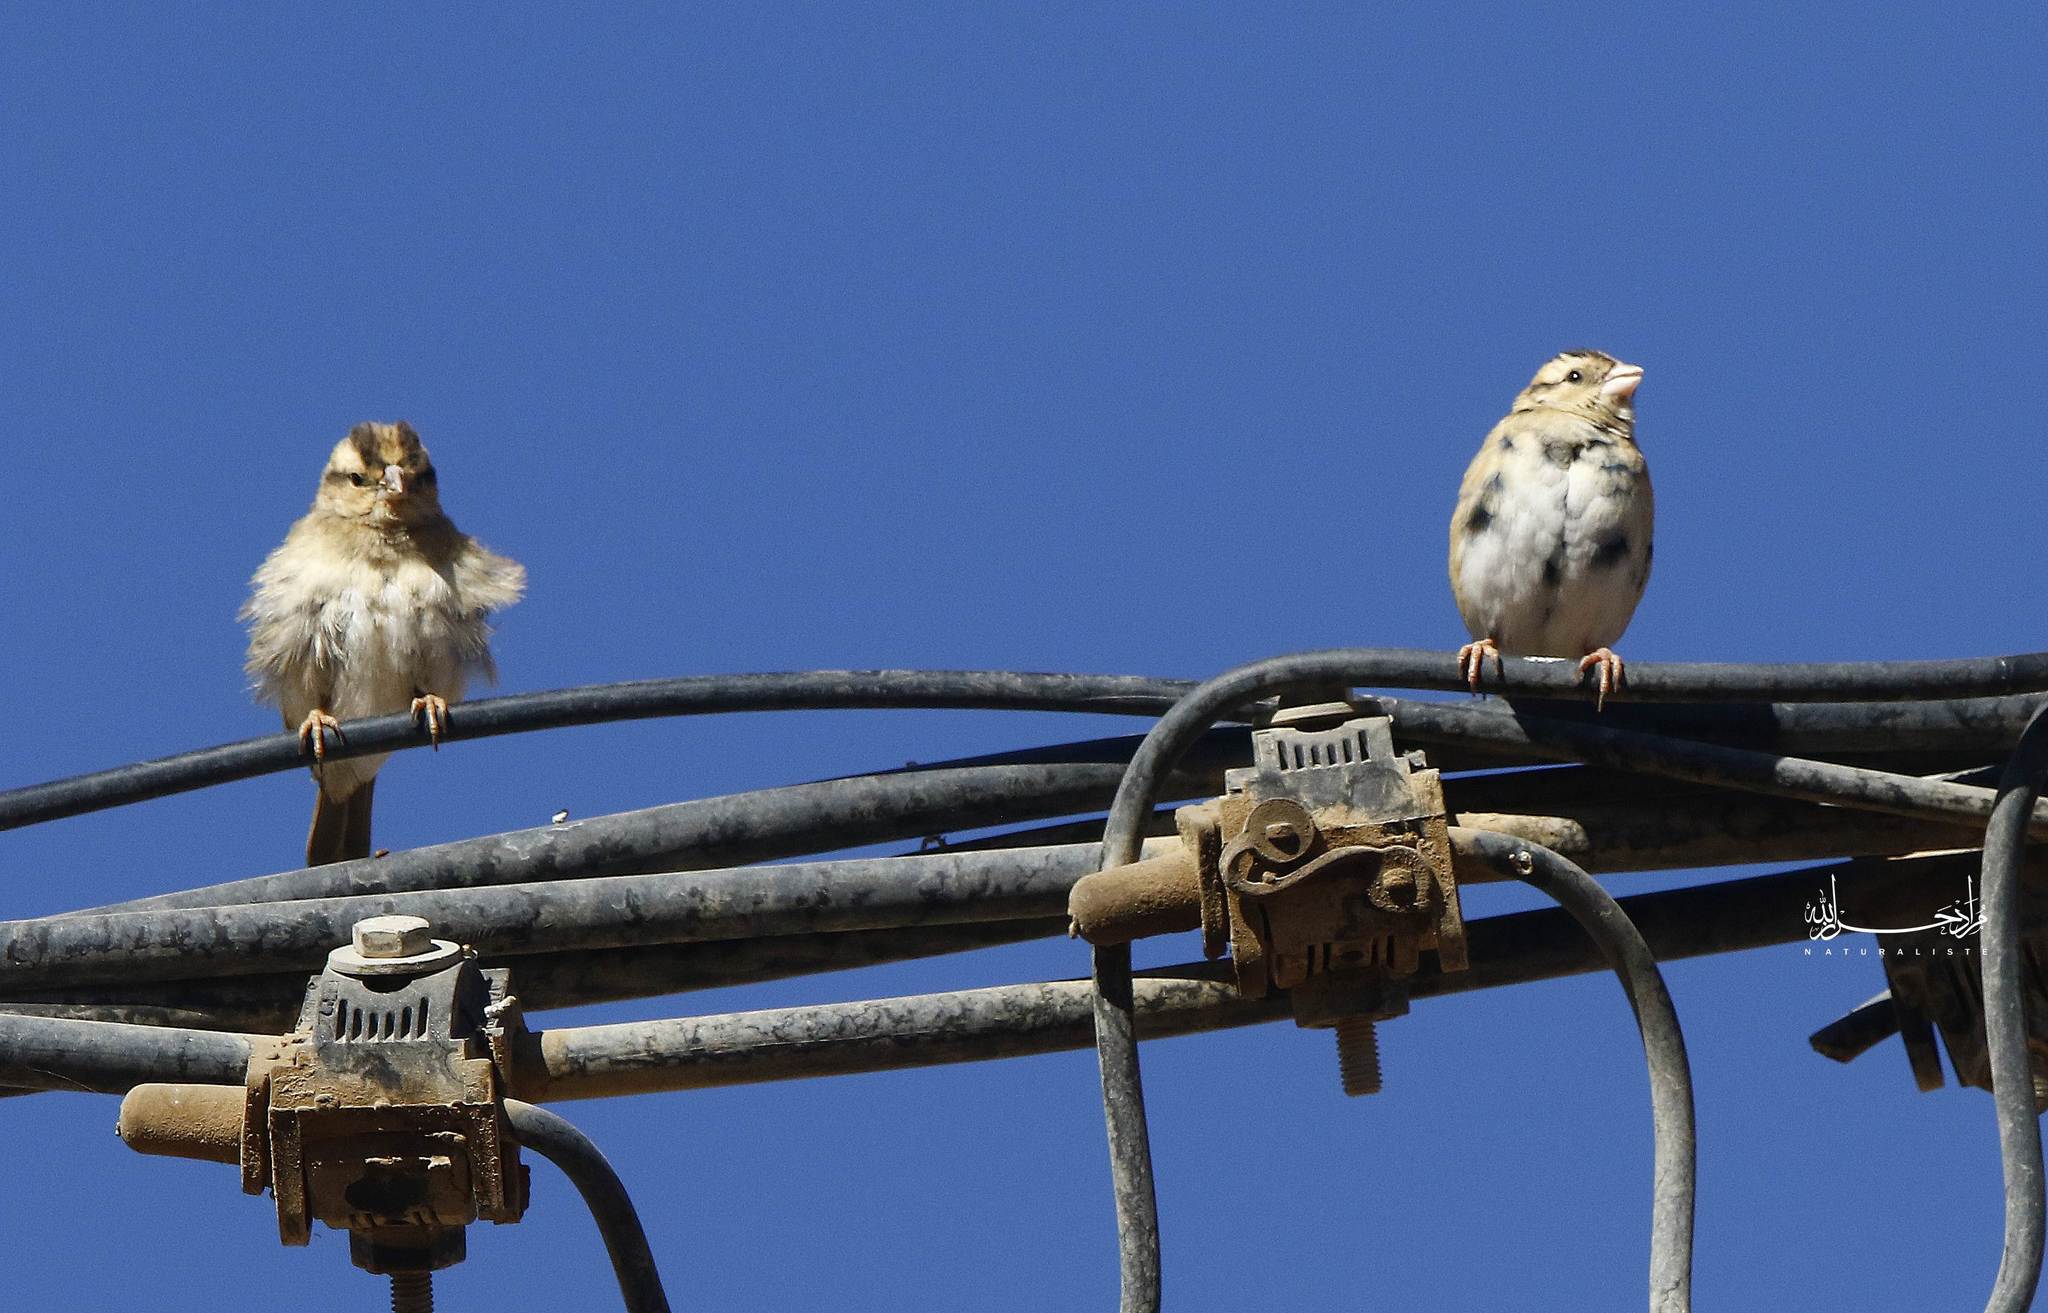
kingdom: Animalia
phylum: Chordata
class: Aves
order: Passeriformes
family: Viduidae
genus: Vidua
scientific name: Vidua chalybeata
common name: Village indigobird
